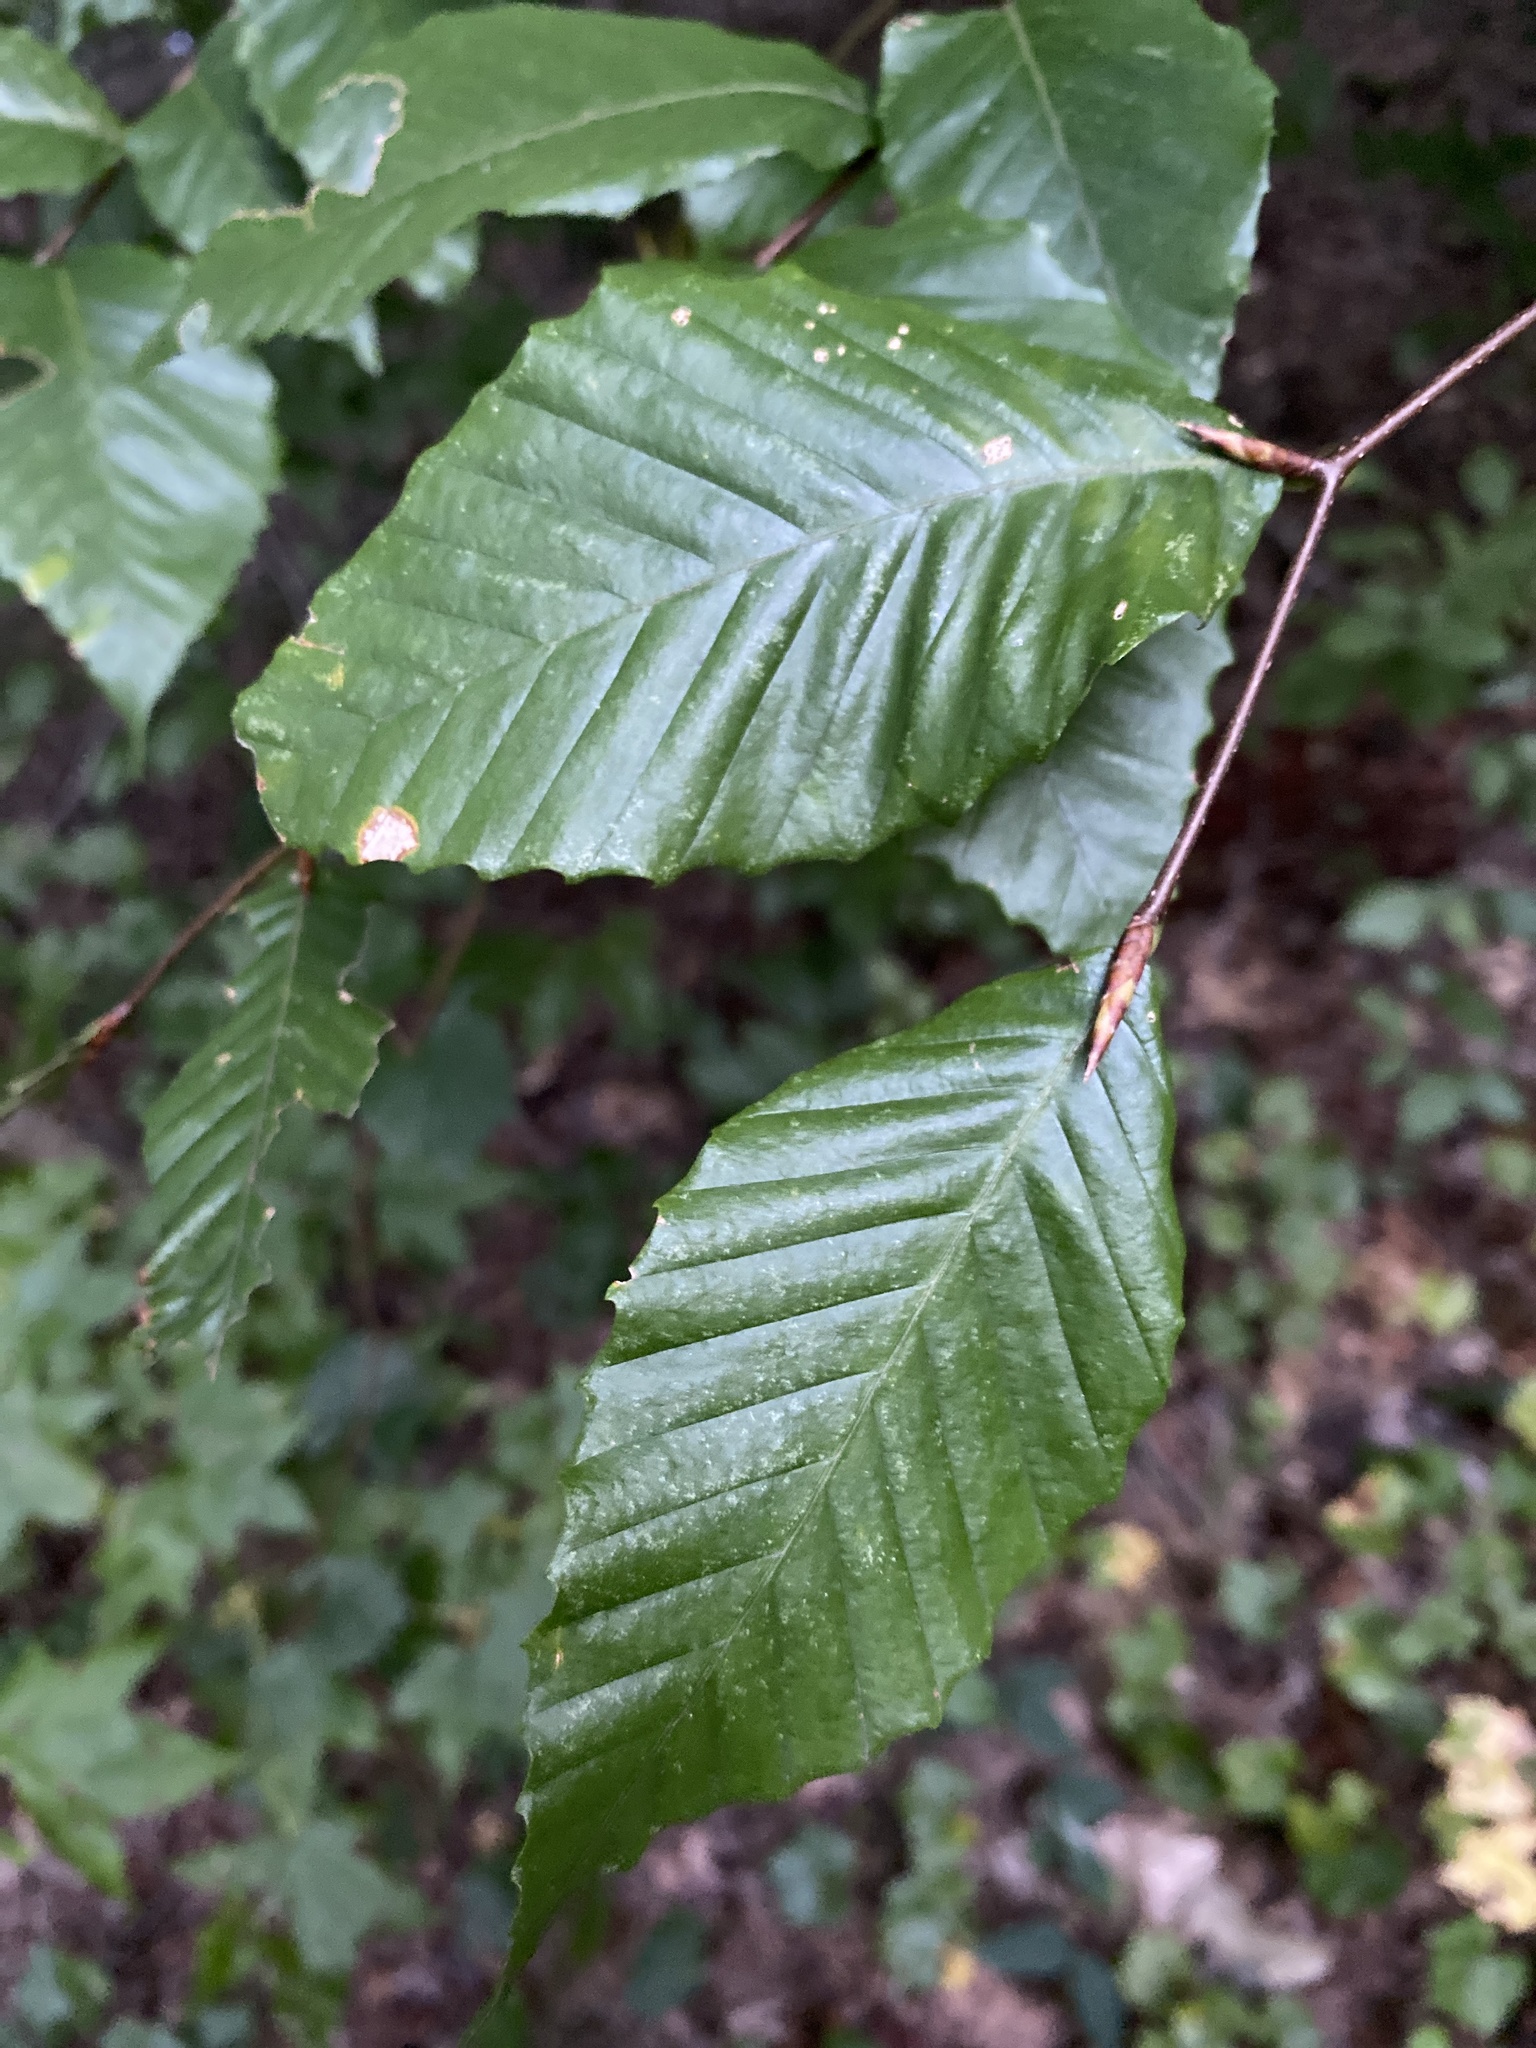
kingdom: Plantae
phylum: Tracheophyta
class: Magnoliopsida
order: Fagales
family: Fagaceae
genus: Fagus
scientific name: Fagus grandifolia
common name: American beech
